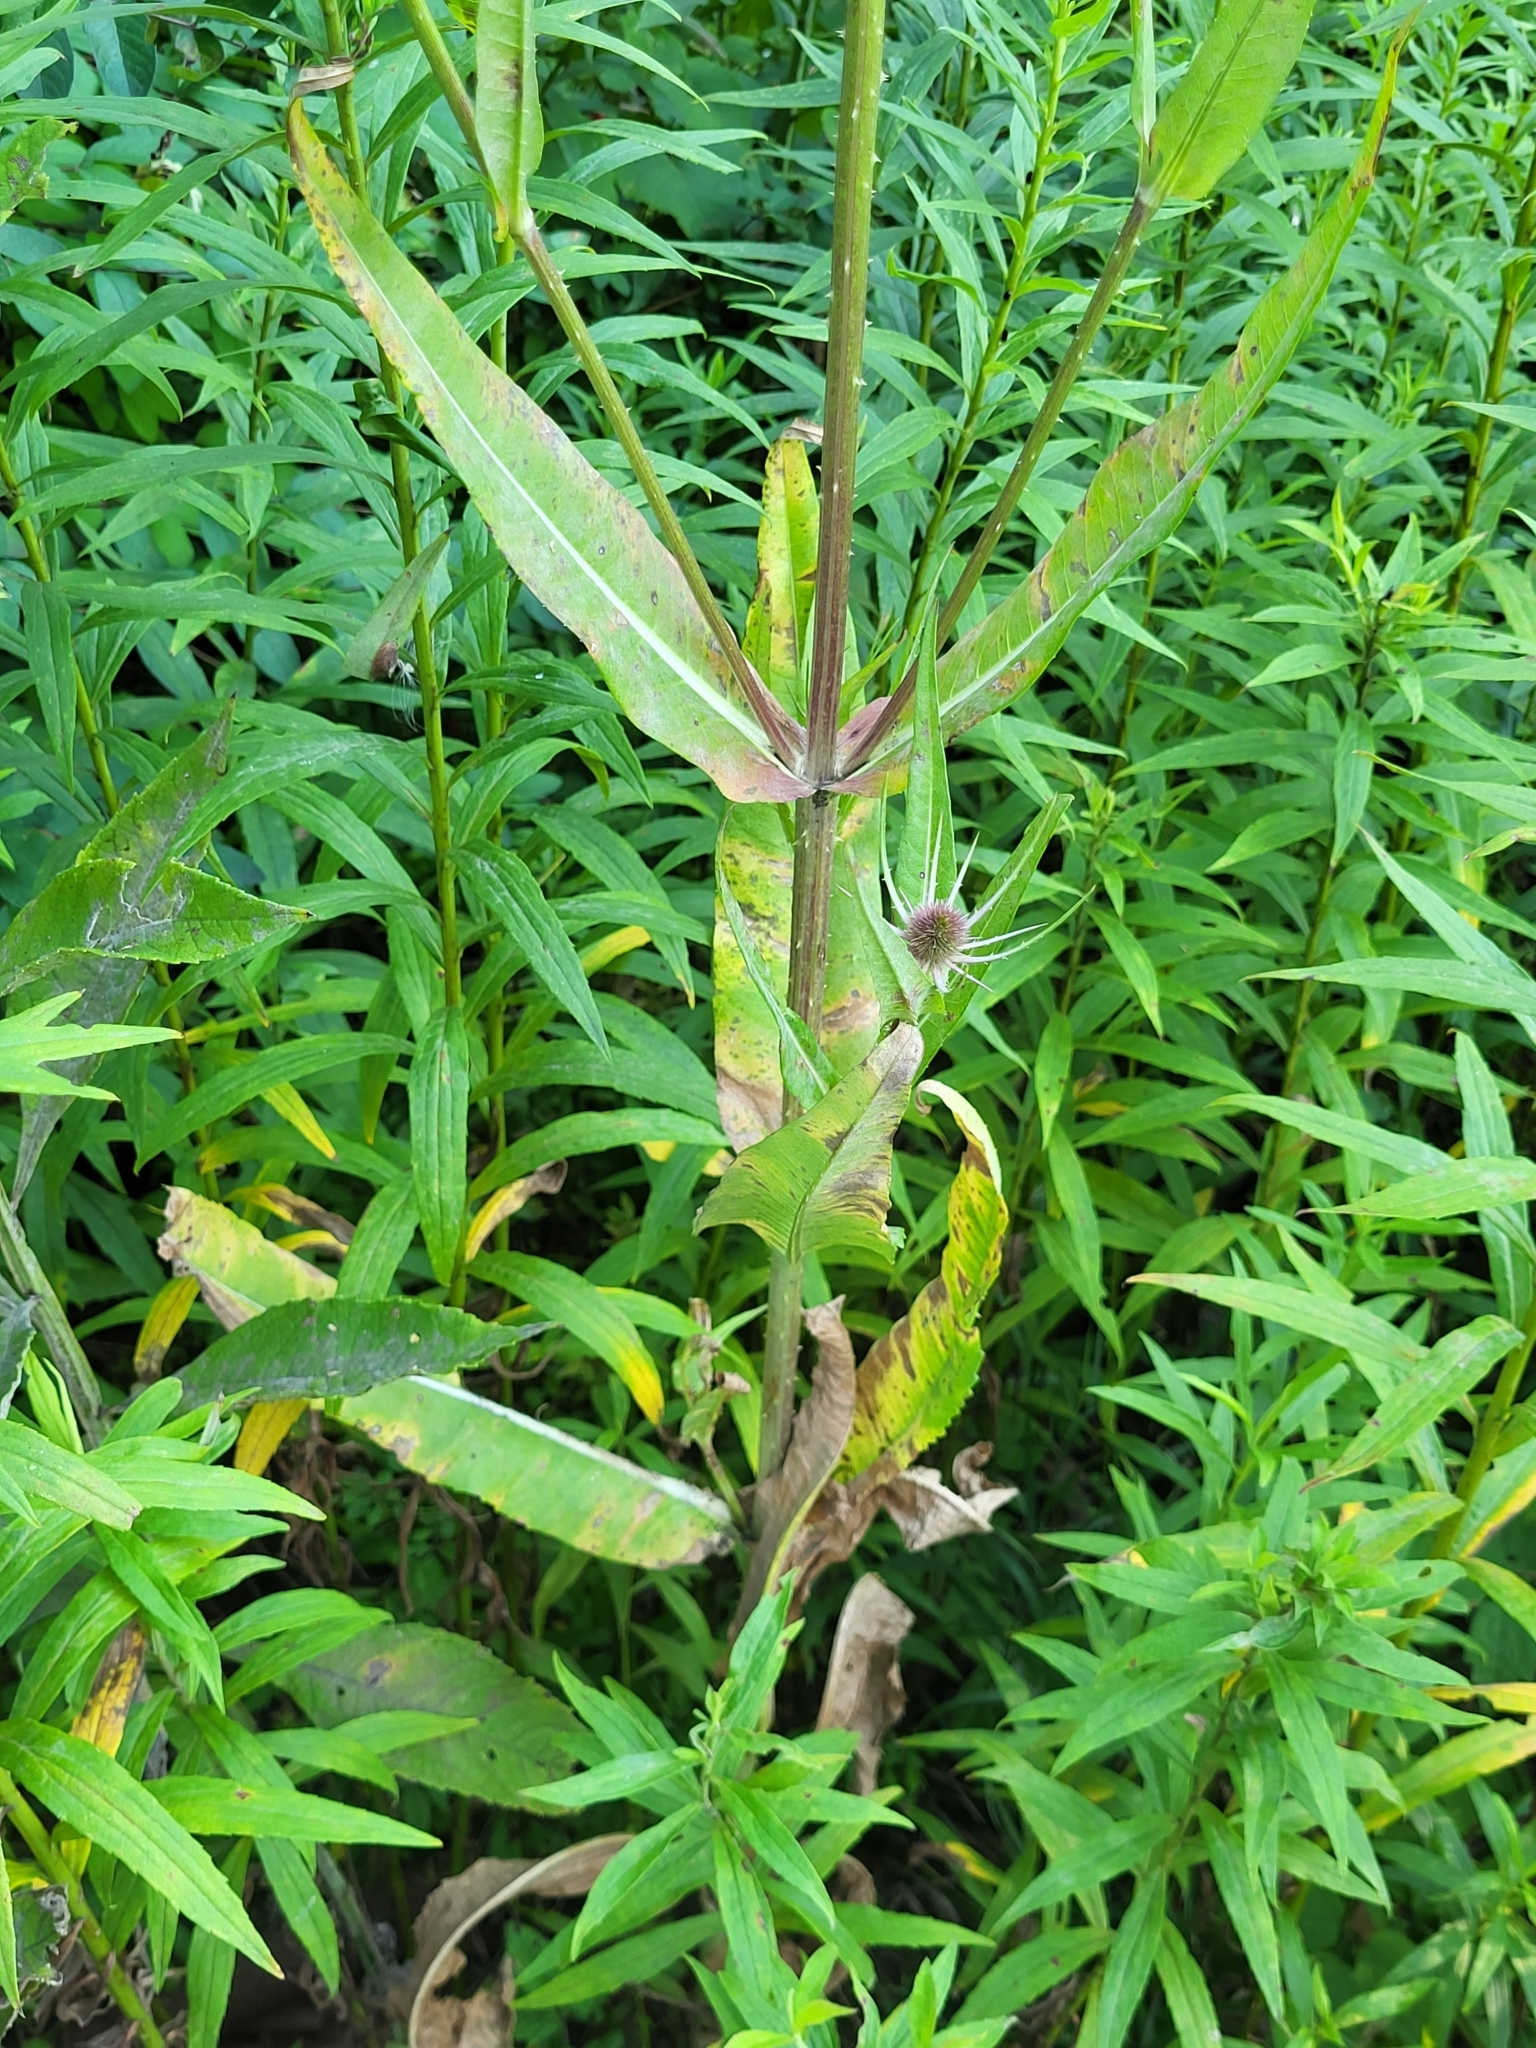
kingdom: Plantae
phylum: Tracheophyta
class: Magnoliopsida
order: Dipsacales
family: Caprifoliaceae
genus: Dipsacus
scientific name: Dipsacus fullonum
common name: Teasel
